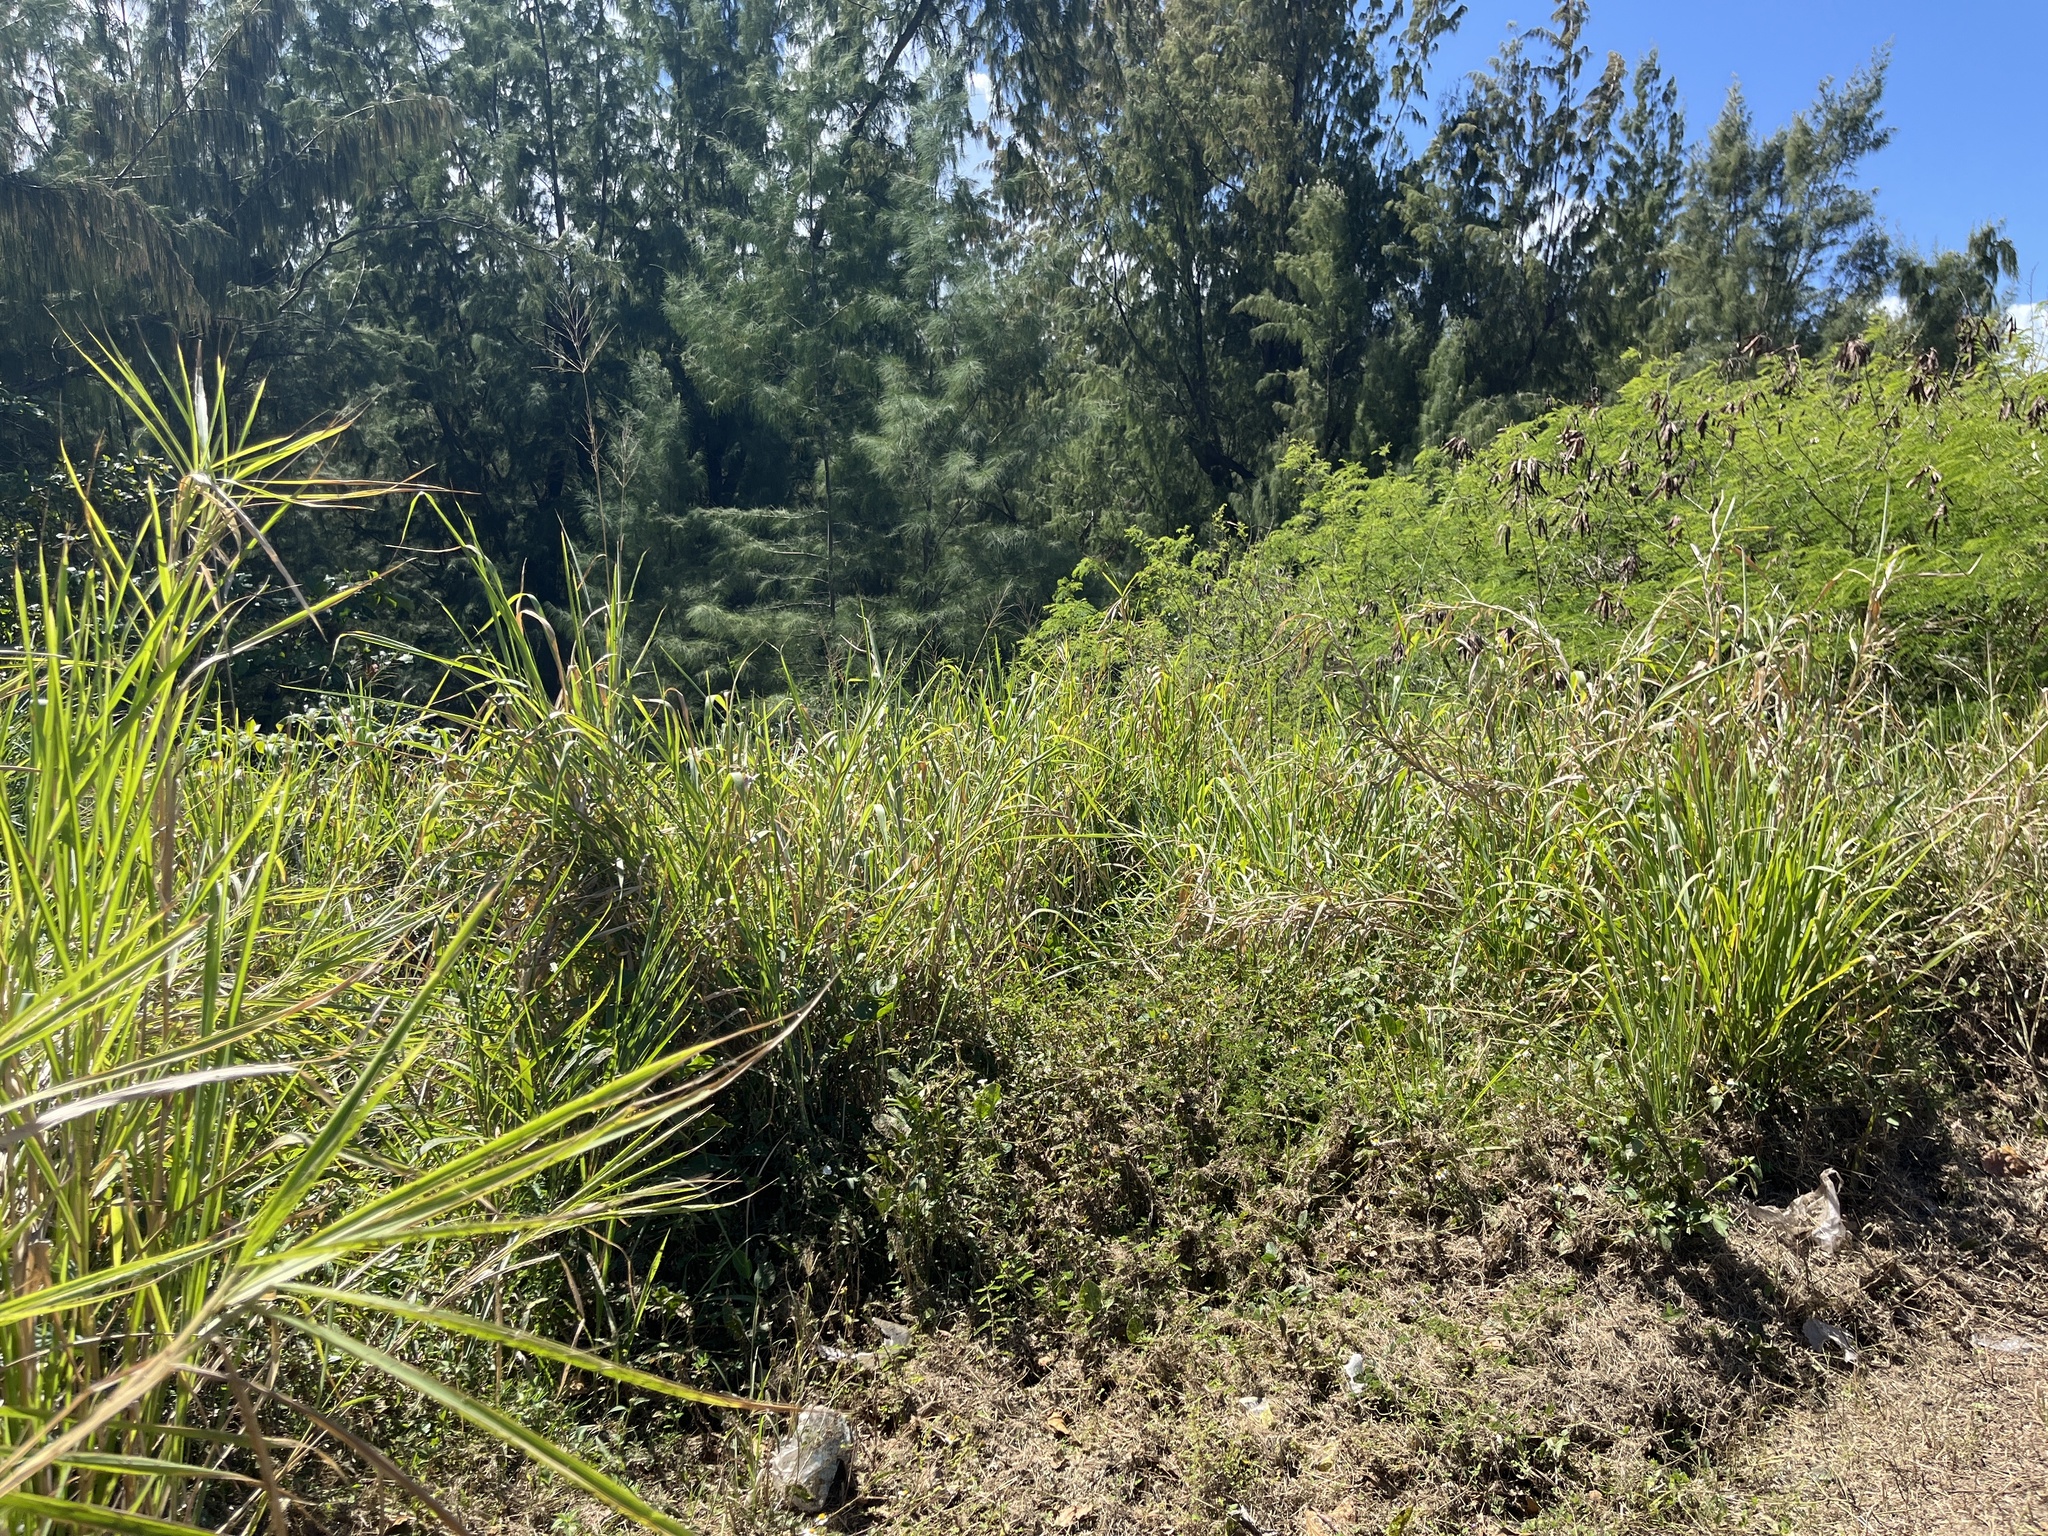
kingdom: Plantae
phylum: Tracheophyta
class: Liliopsida
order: Poales
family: Poaceae
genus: Megathyrsus
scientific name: Megathyrsus maximus
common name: Guineagrass
